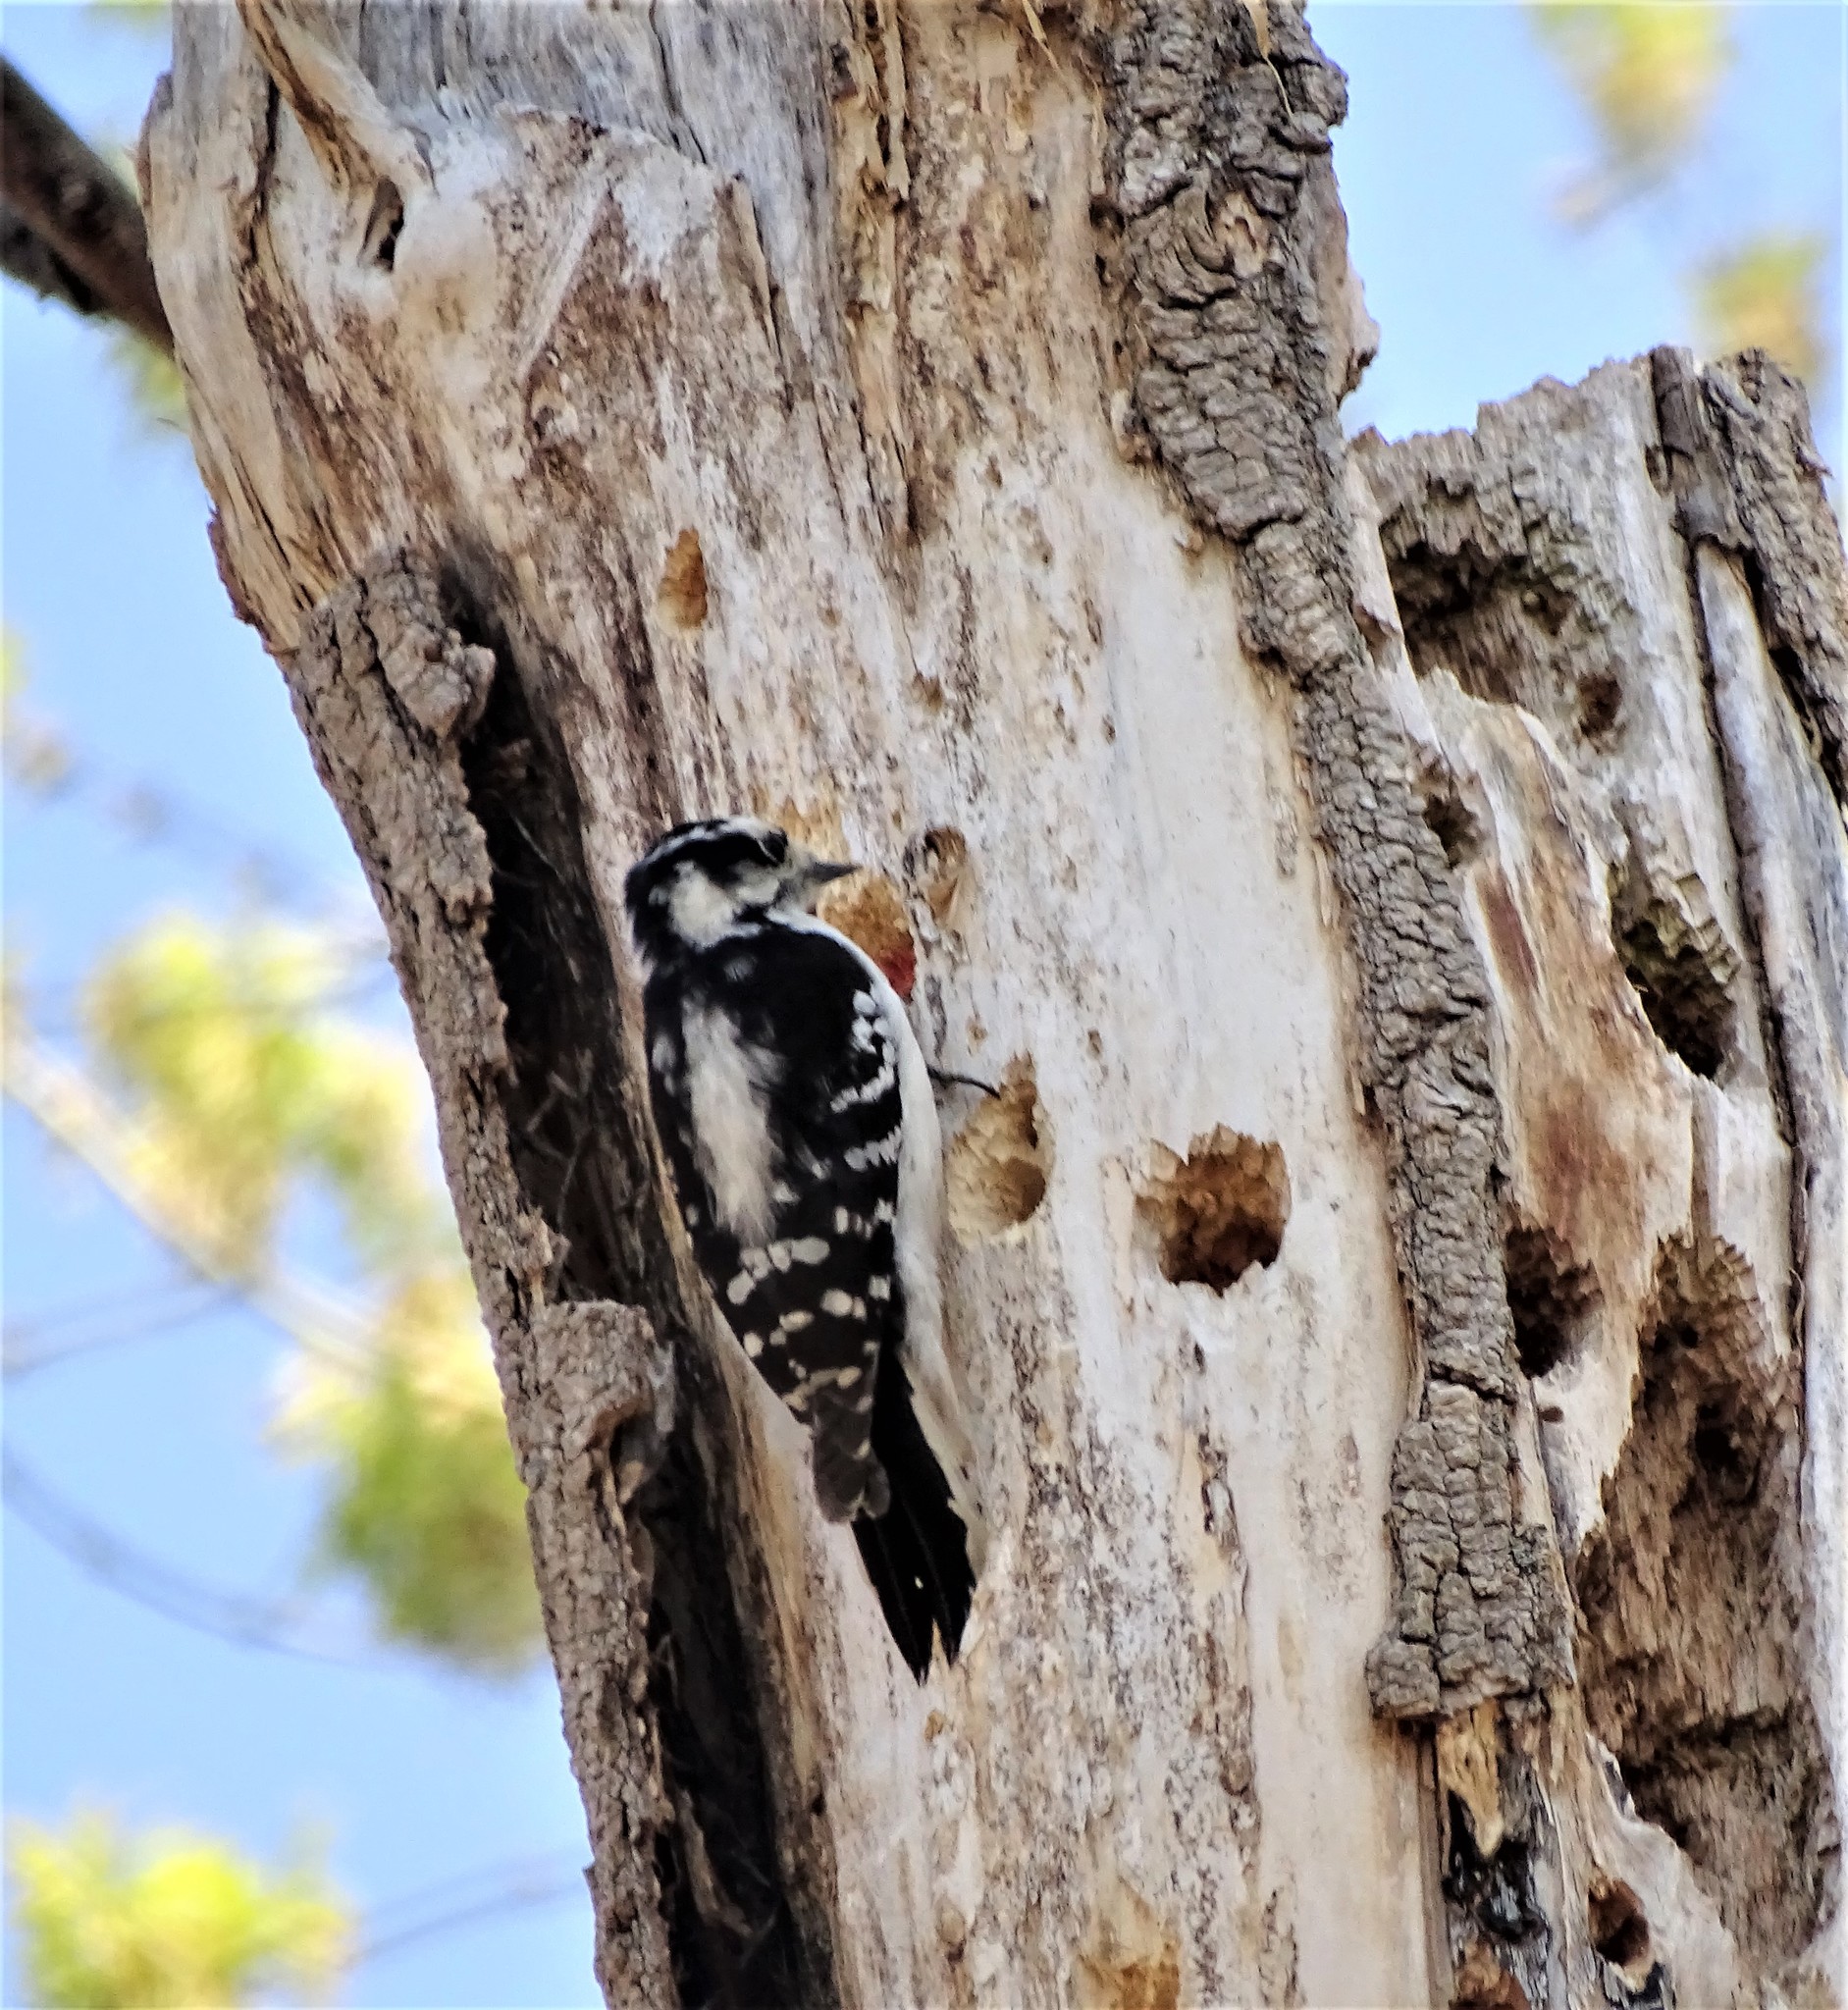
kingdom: Animalia
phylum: Chordata
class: Aves
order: Piciformes
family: Picidae
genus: Dryobates
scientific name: Dryobates pubescens
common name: Downy woodpecker
